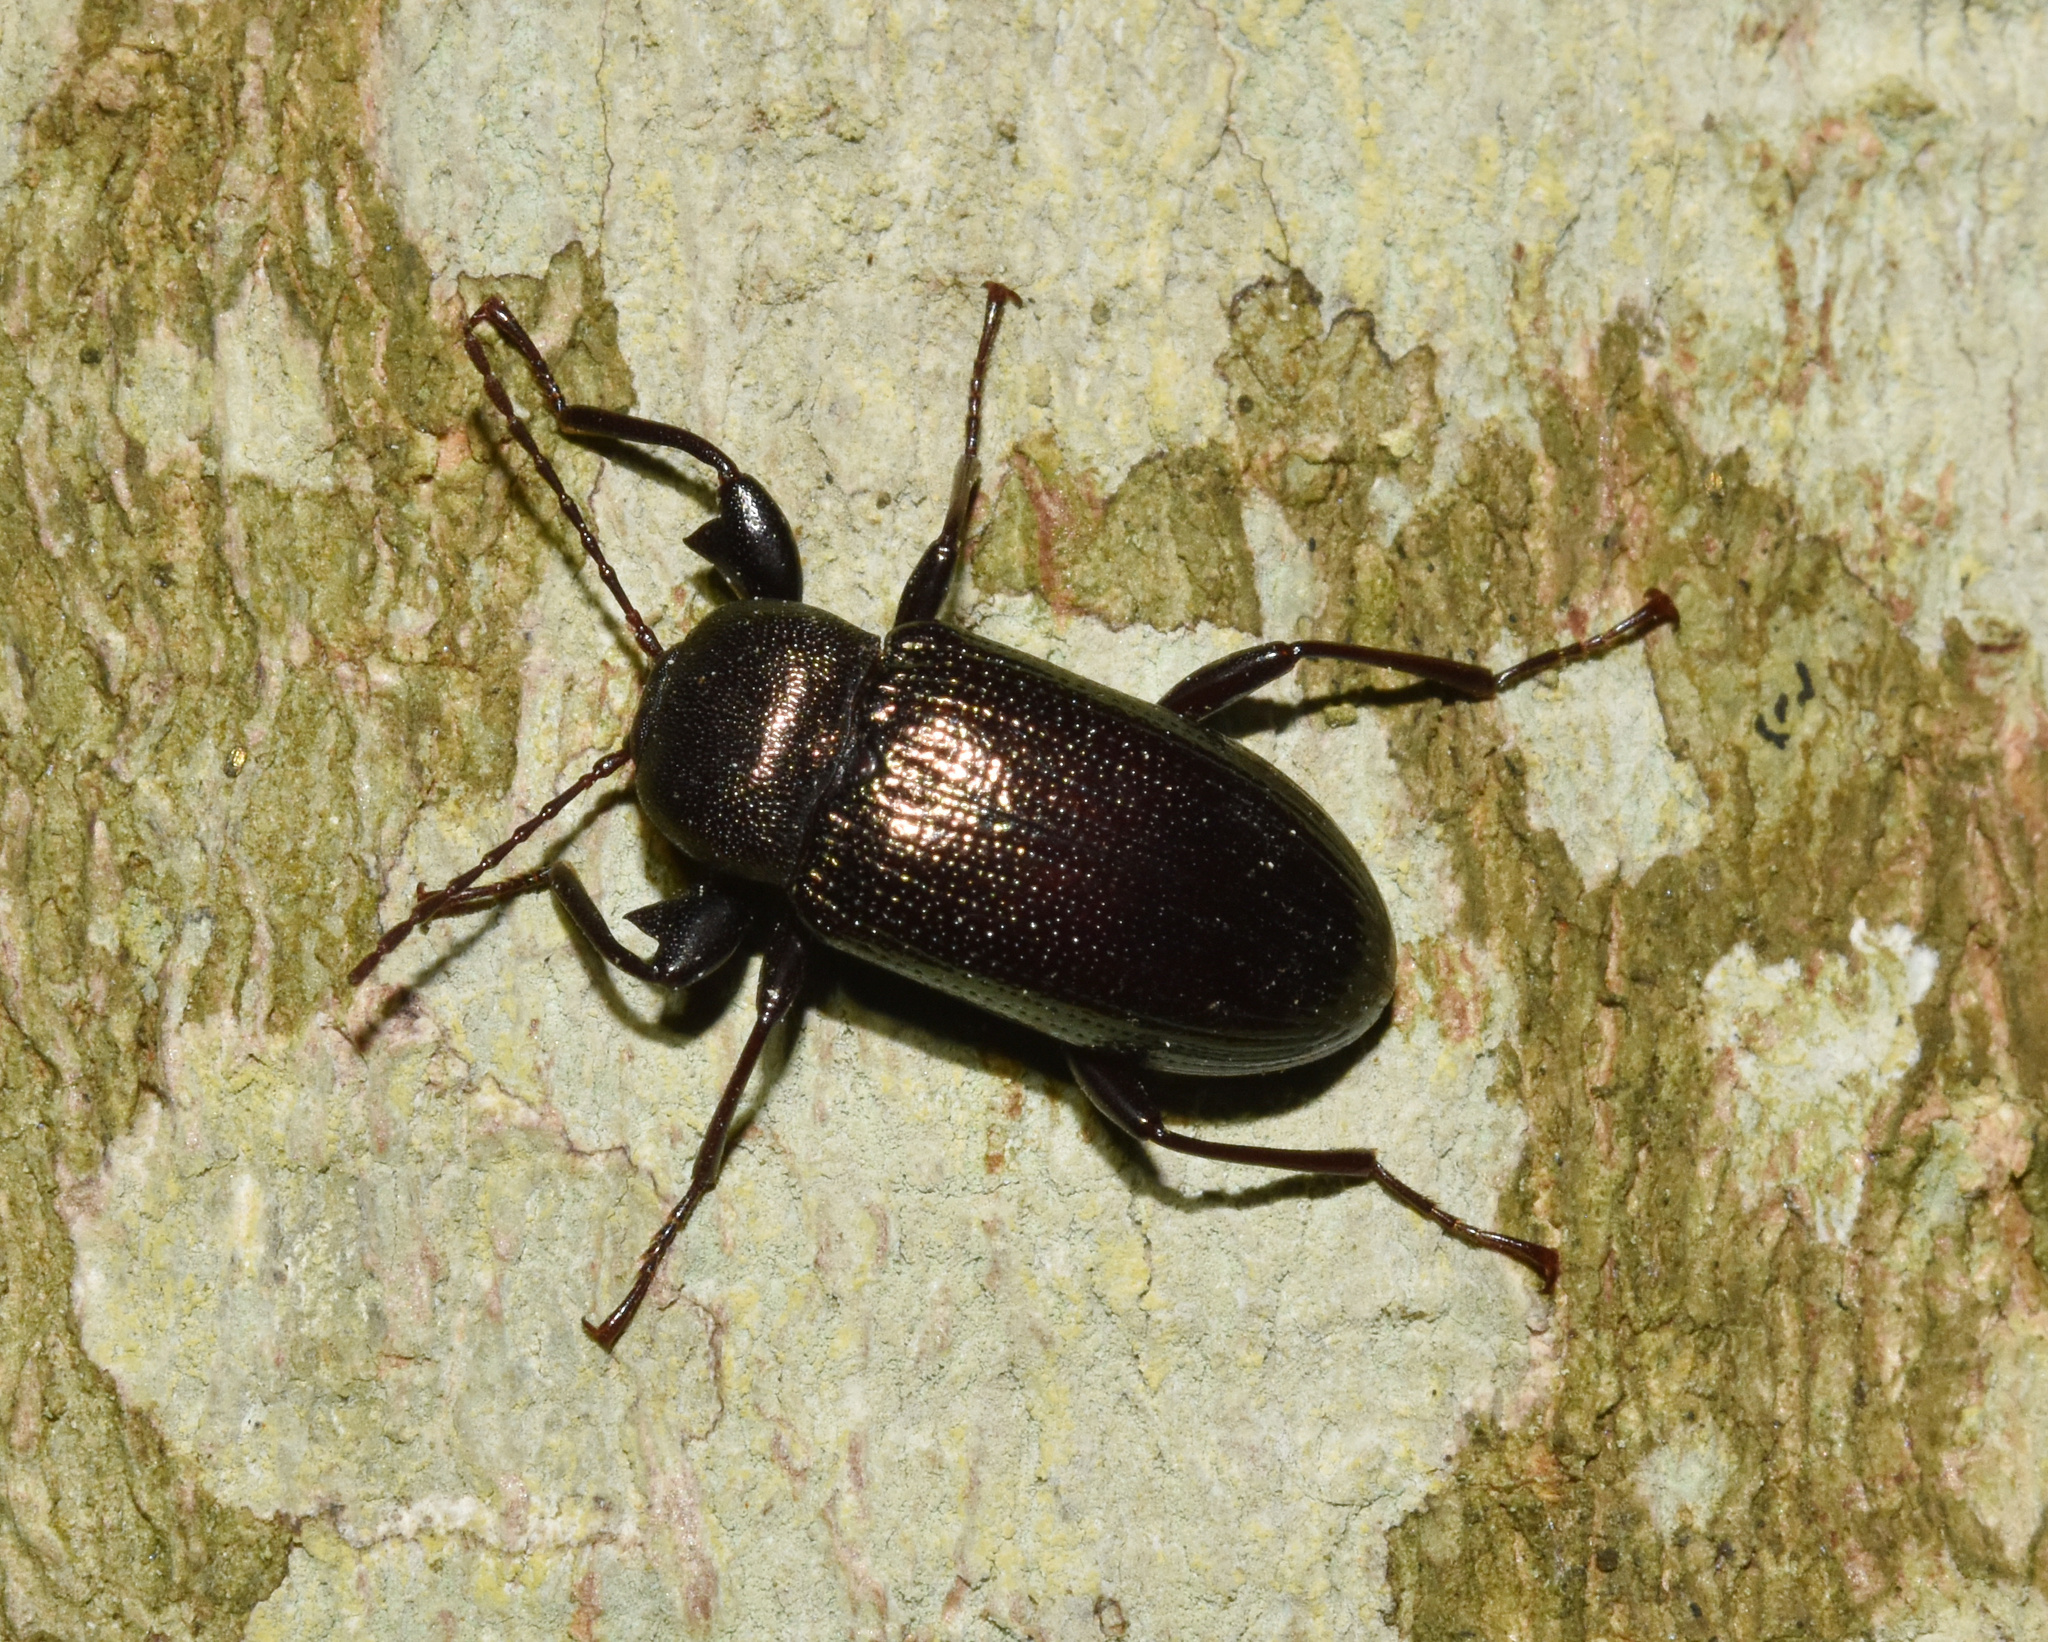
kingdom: Animalia
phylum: Arthropoda
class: Insecta
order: Coleoptera
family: Tenebrionidae
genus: Hoplonyx
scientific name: Hoplonyx
